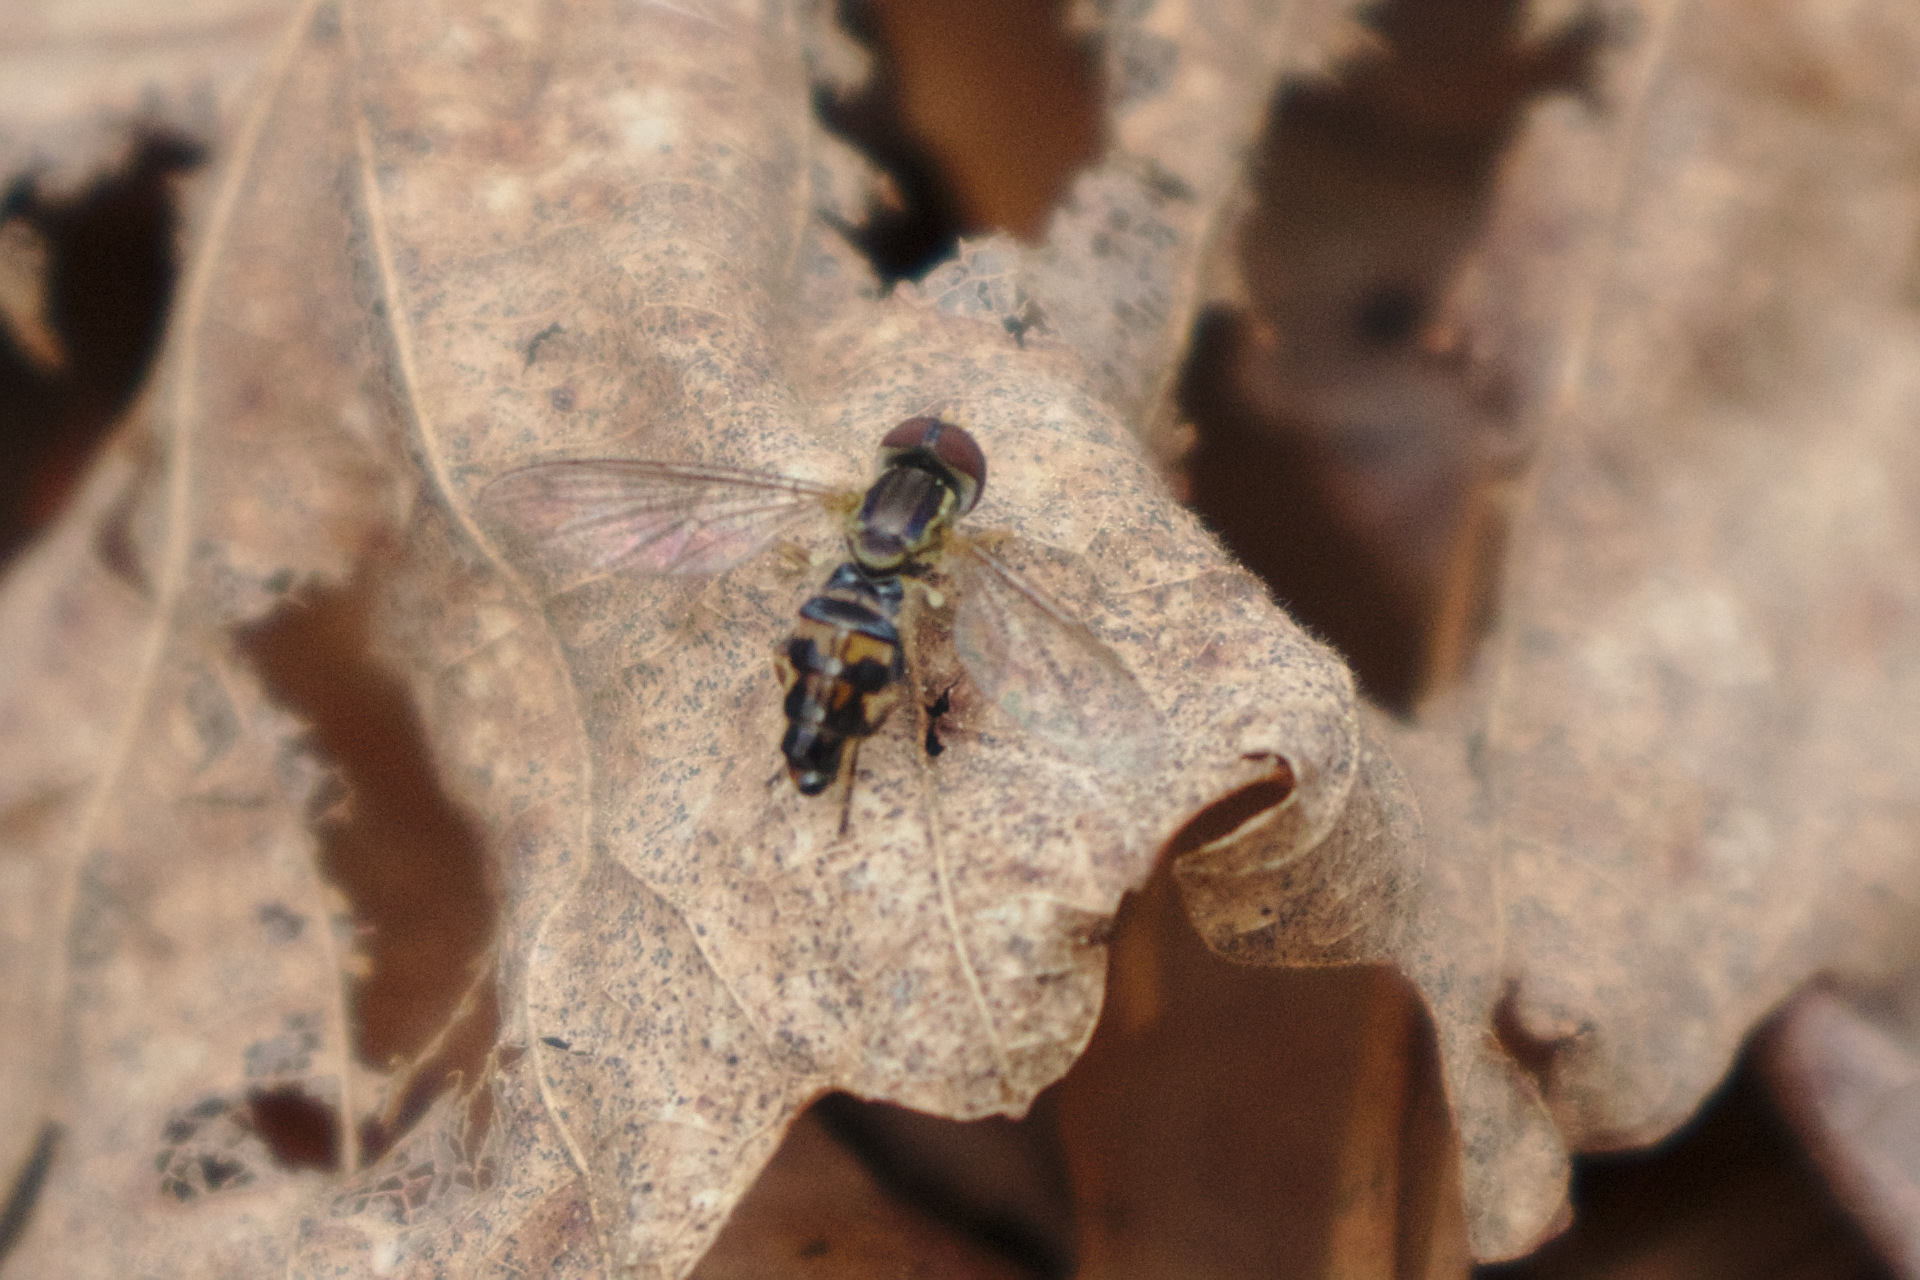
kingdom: Animalia
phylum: Arthropoda
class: Insecta
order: Diptera
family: Syrphidae
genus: Toxomerus
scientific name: Toxomerus geminatus
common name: Eastern calligrapher
